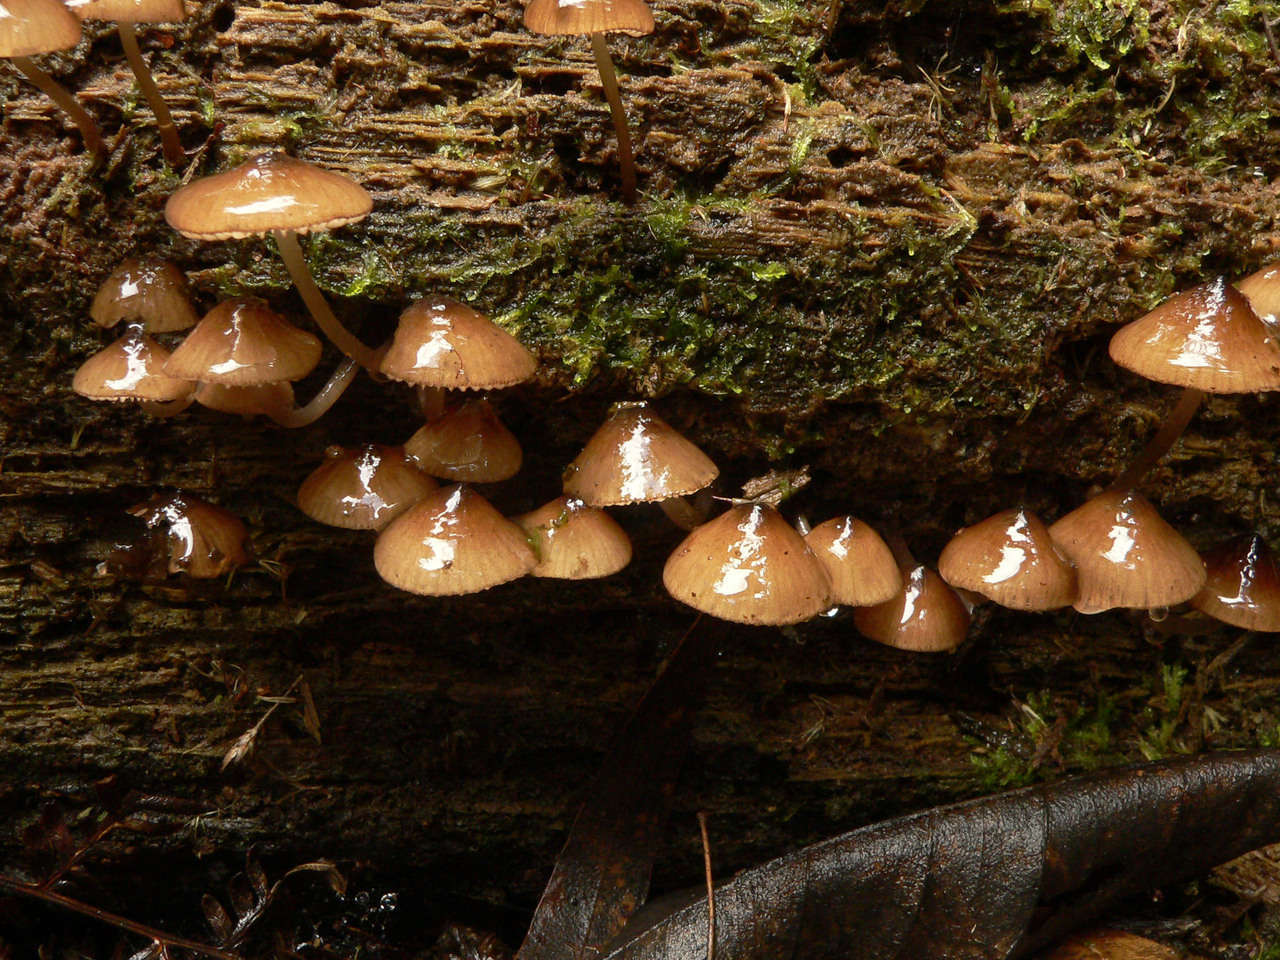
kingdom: Fungi
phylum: Basidiomycota
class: Agaricomycetes
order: Agaricales
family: Mycenaceae
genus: Mycena
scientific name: Mycena mulawaestris
